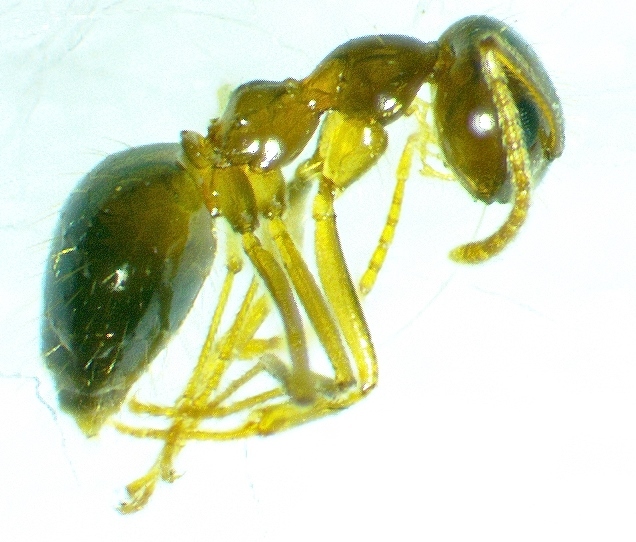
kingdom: Animalia
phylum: Arthropoda
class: Insecta
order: Hymenoptera
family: Formicidae
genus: Prenolepis
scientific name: Prenolepis imparis
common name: Small honey ant
